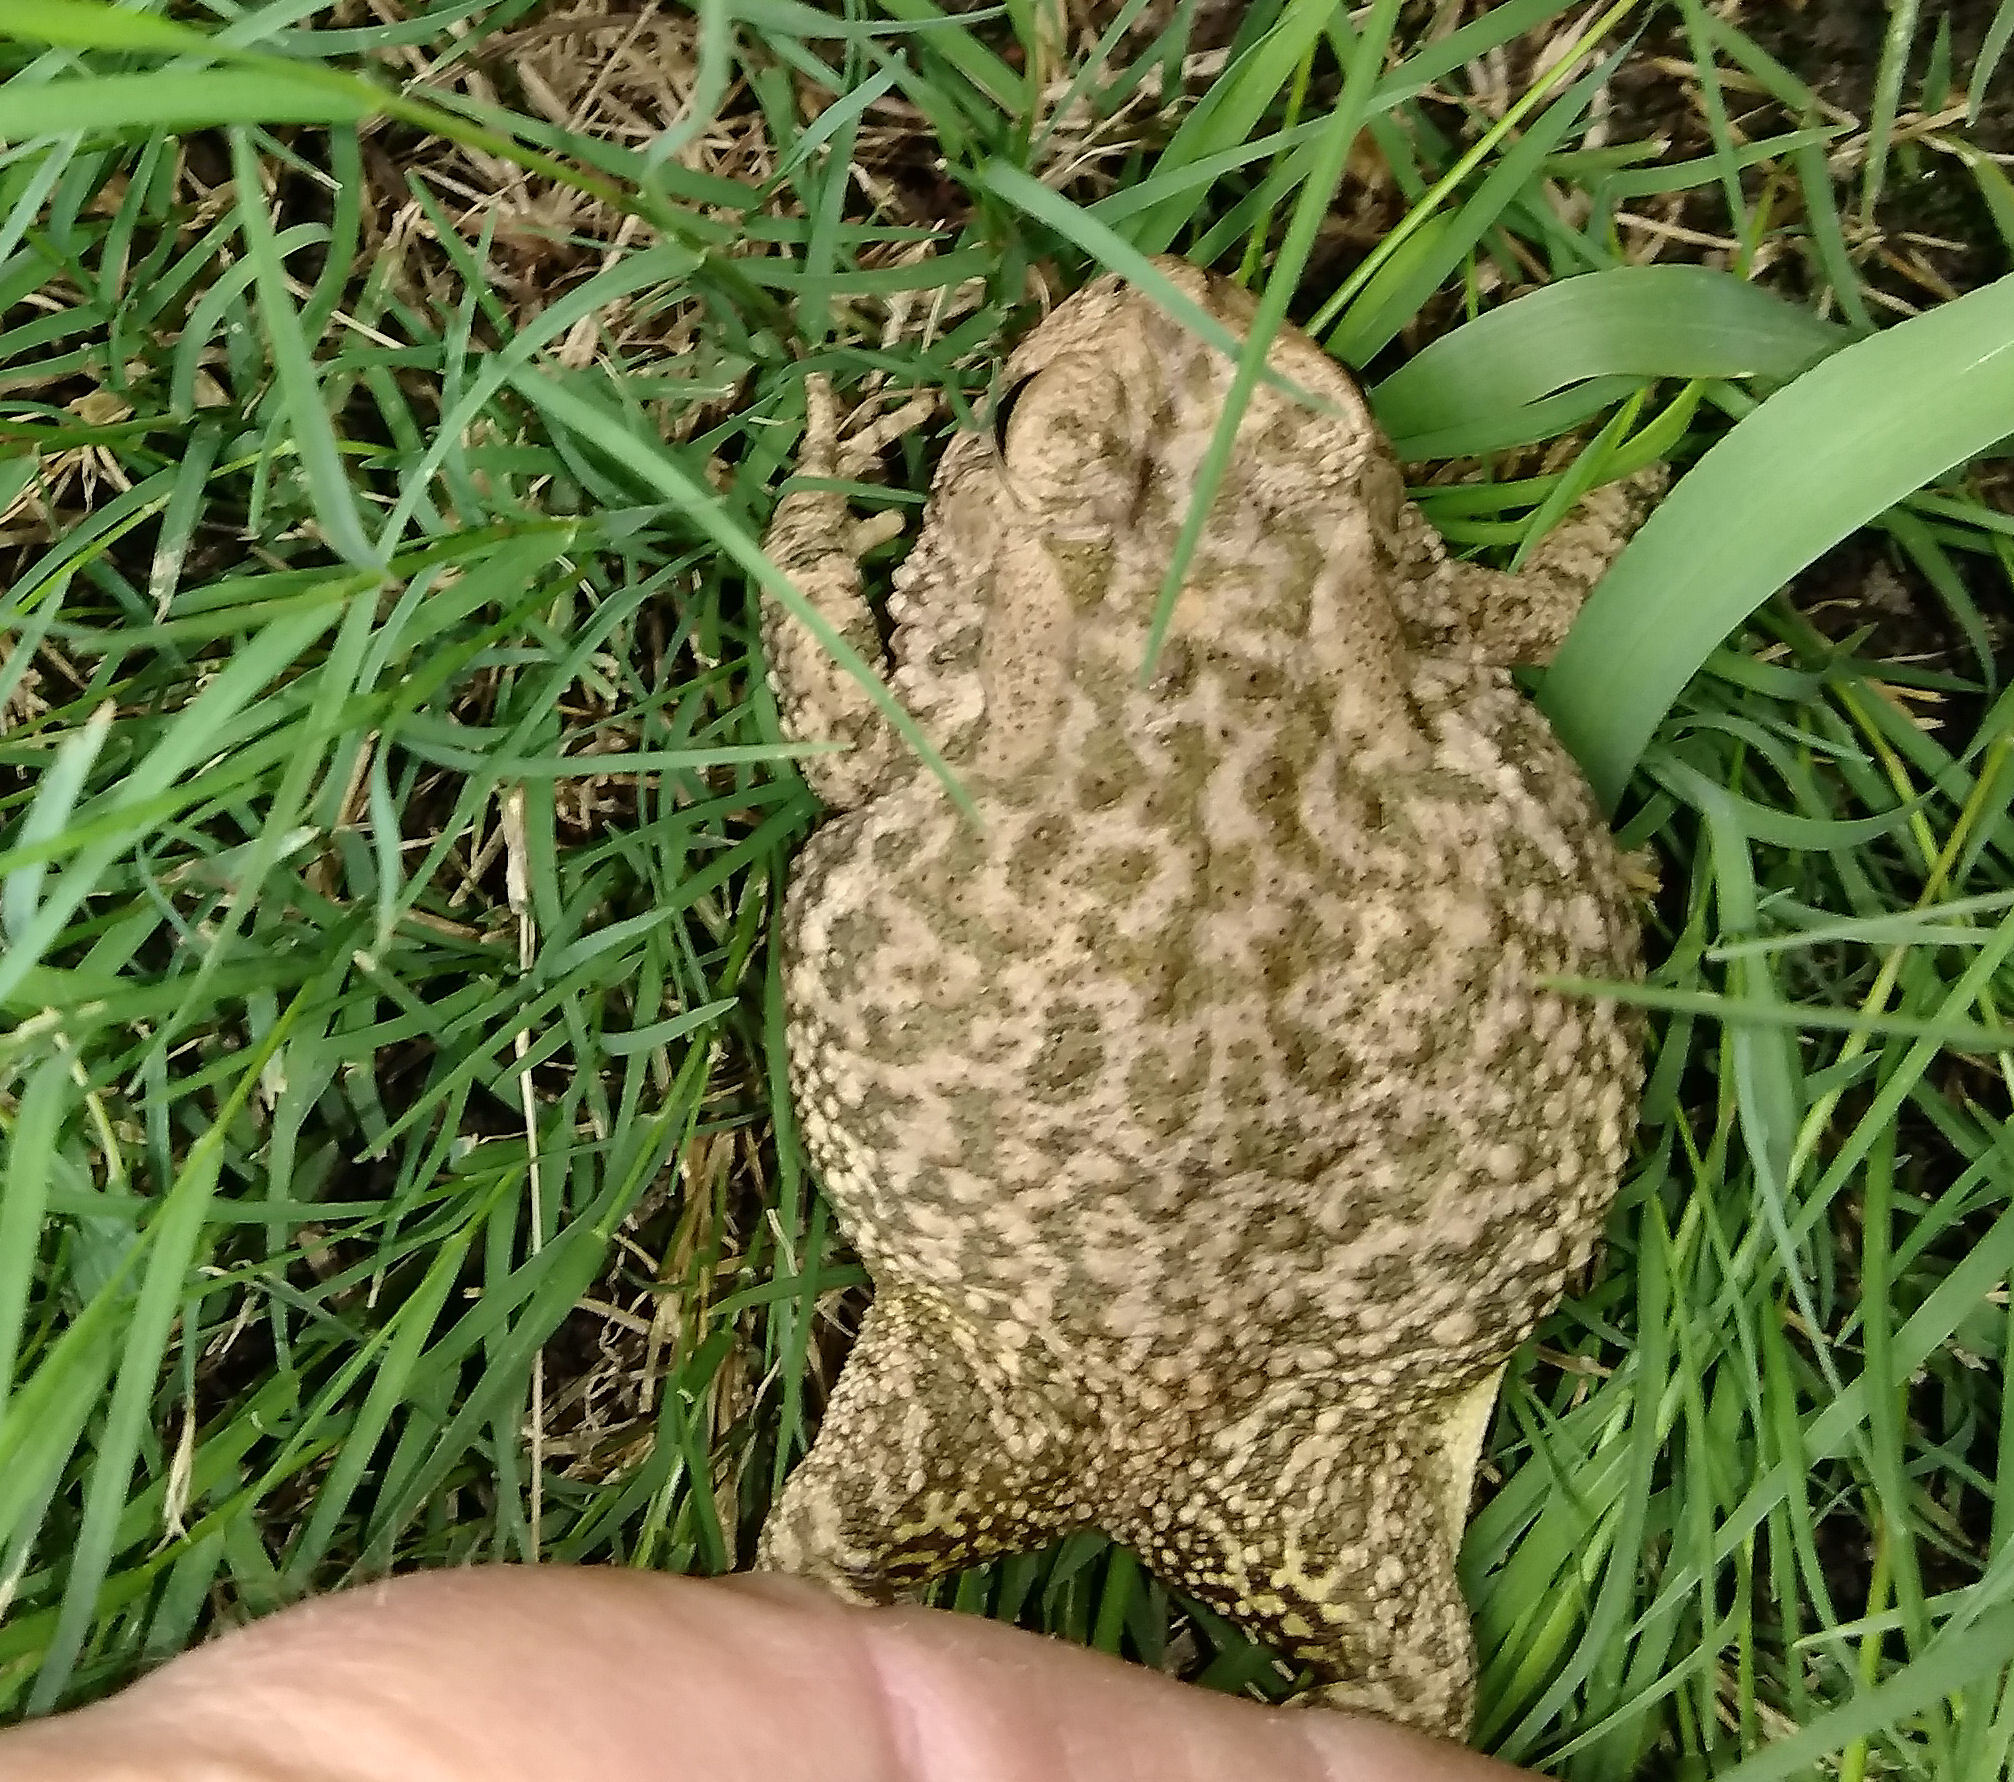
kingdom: Animalia
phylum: Chordata
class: Amphibia
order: Anura
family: Bufonidae
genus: Anaxyrus
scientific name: Anaxyrus fowleri
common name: Fowler's toad
